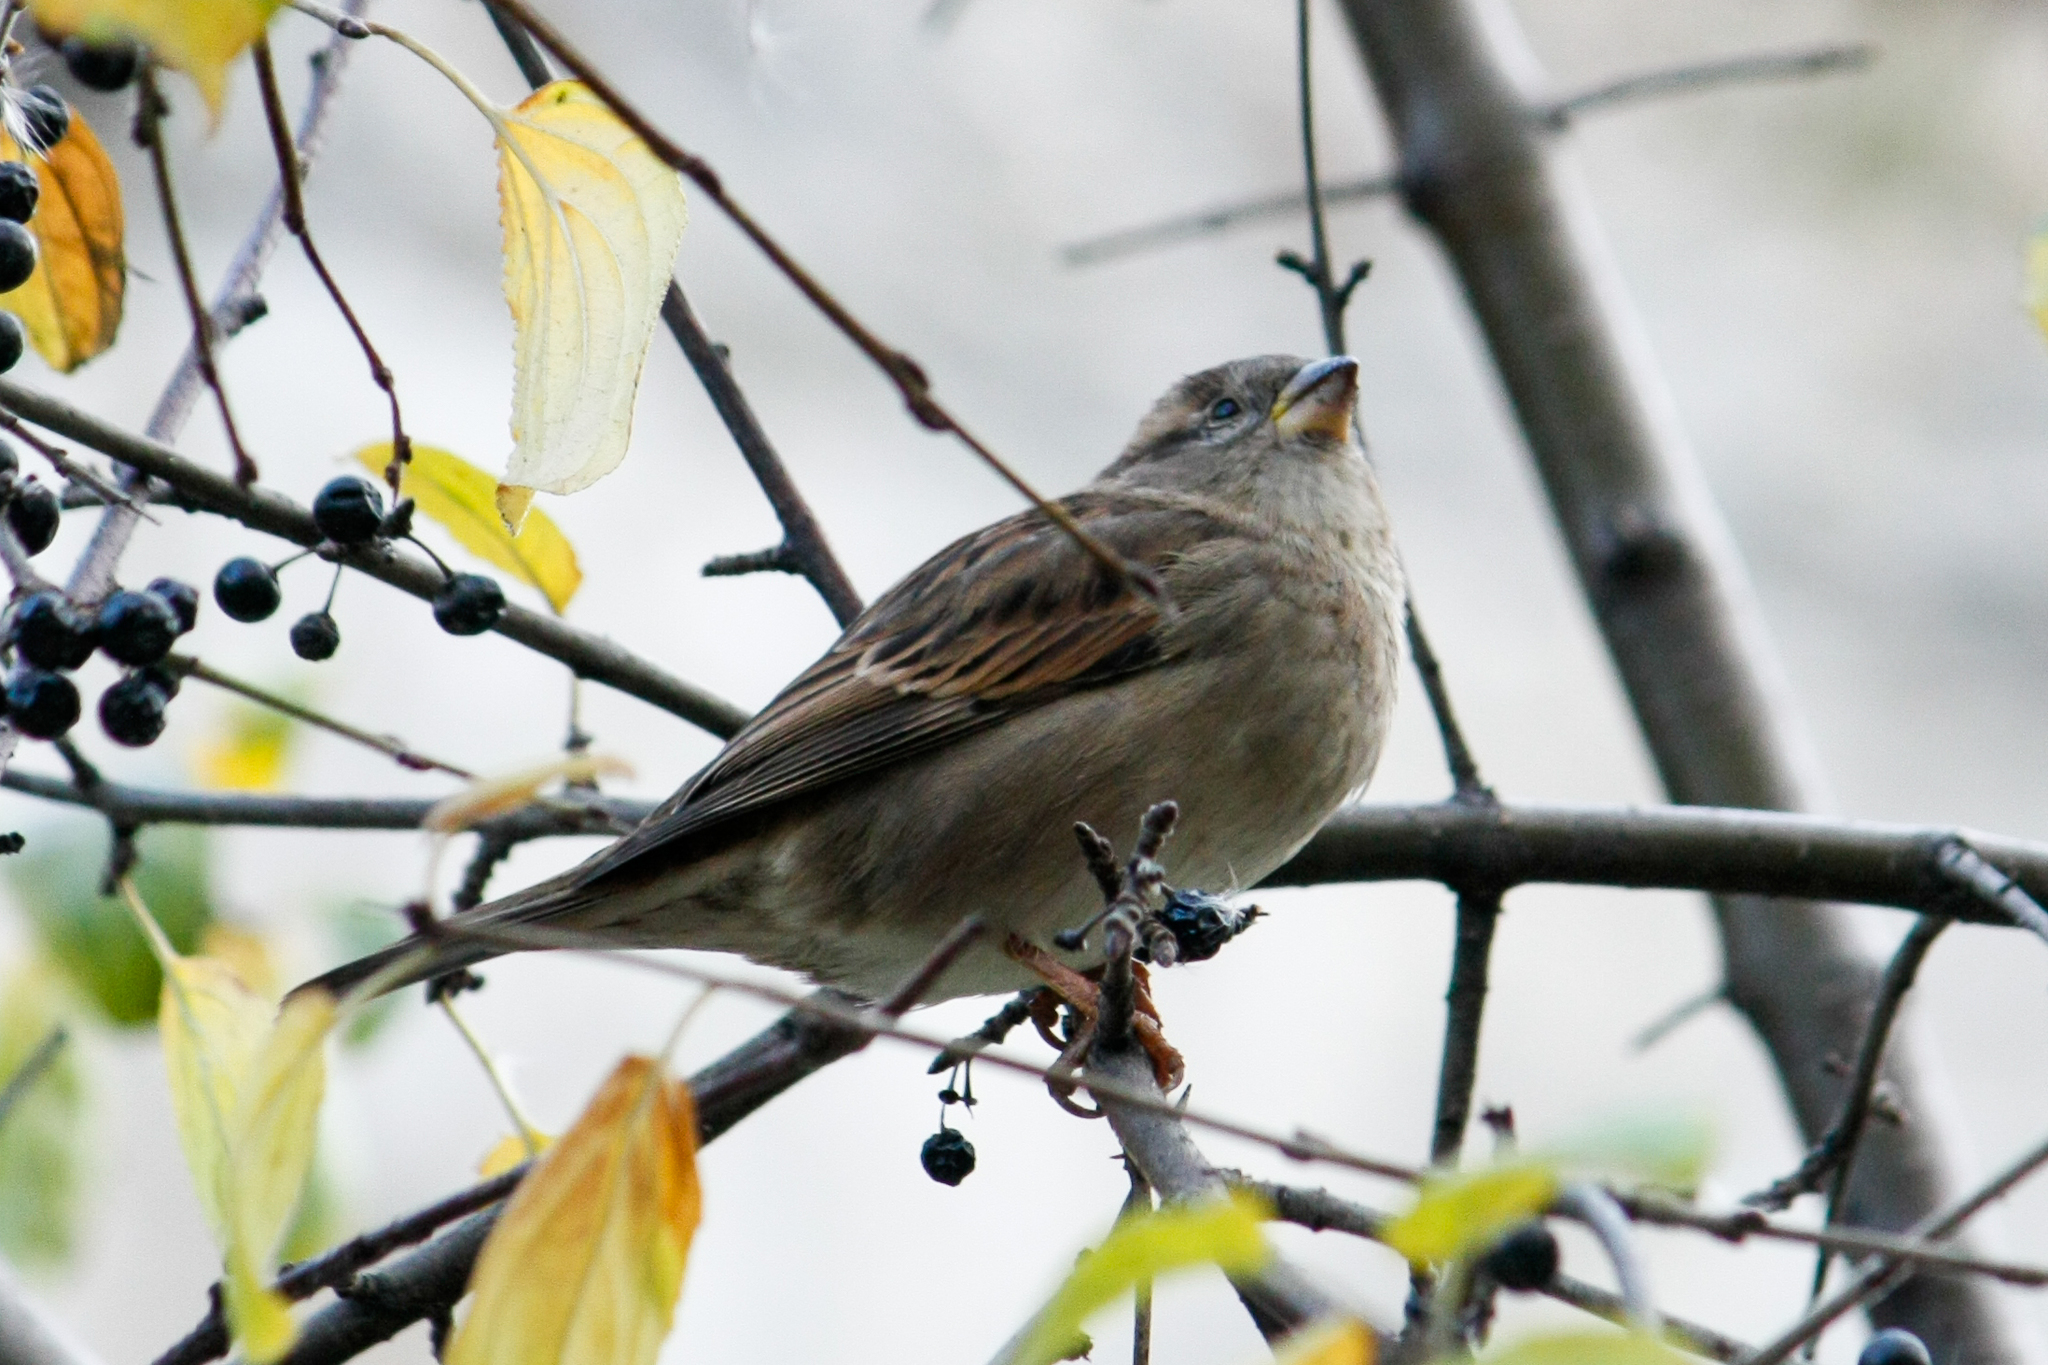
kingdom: Animalia
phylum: Chordata
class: Aves
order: Passeriformes
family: Passeridae
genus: Passer
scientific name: Passer domesticus
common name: House sparrow
